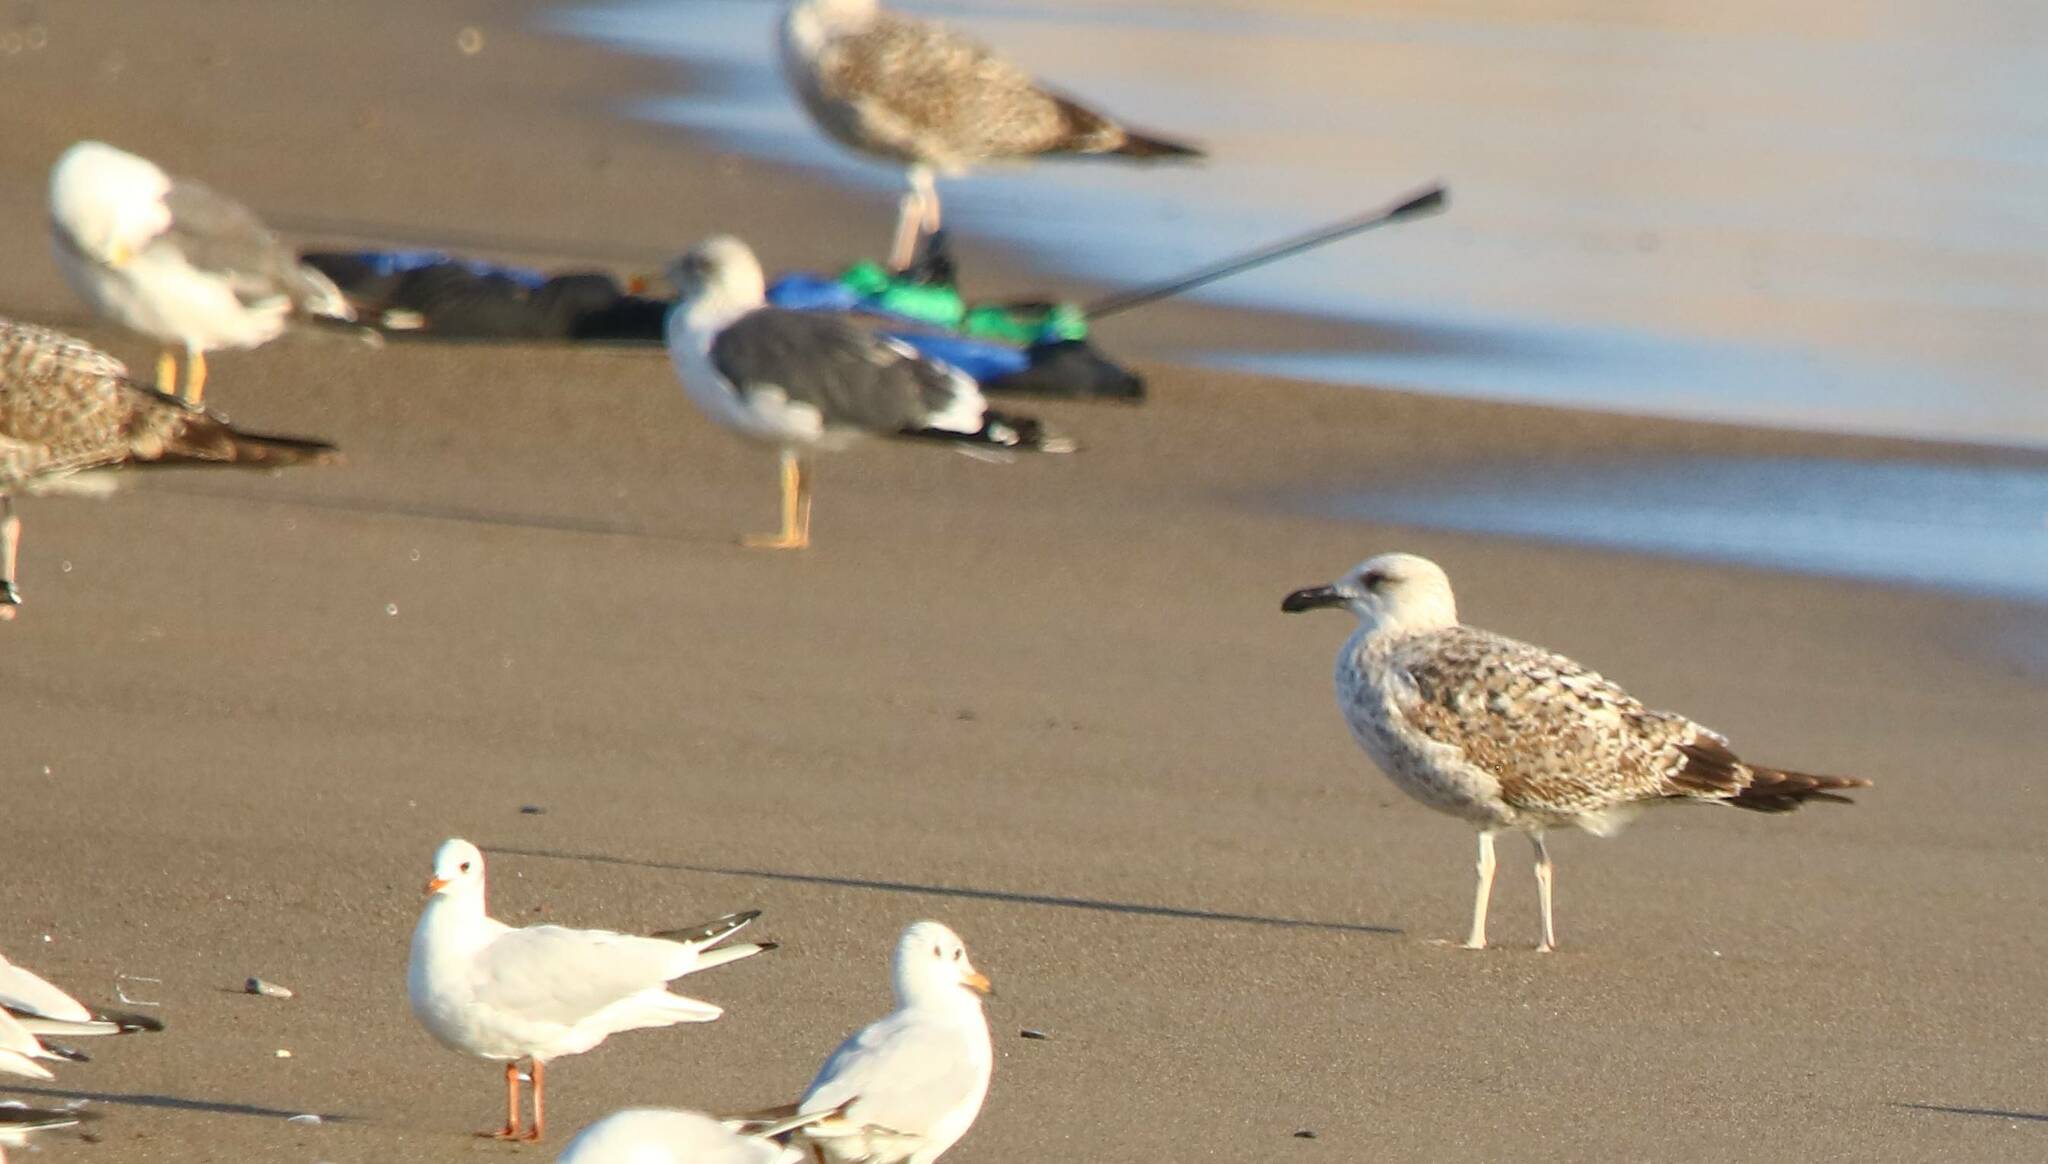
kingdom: Animalia
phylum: Chordata
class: Aves
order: Charadriiformes
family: Laridae
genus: Larus
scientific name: Larus michahellis
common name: Yellow-legged gull
